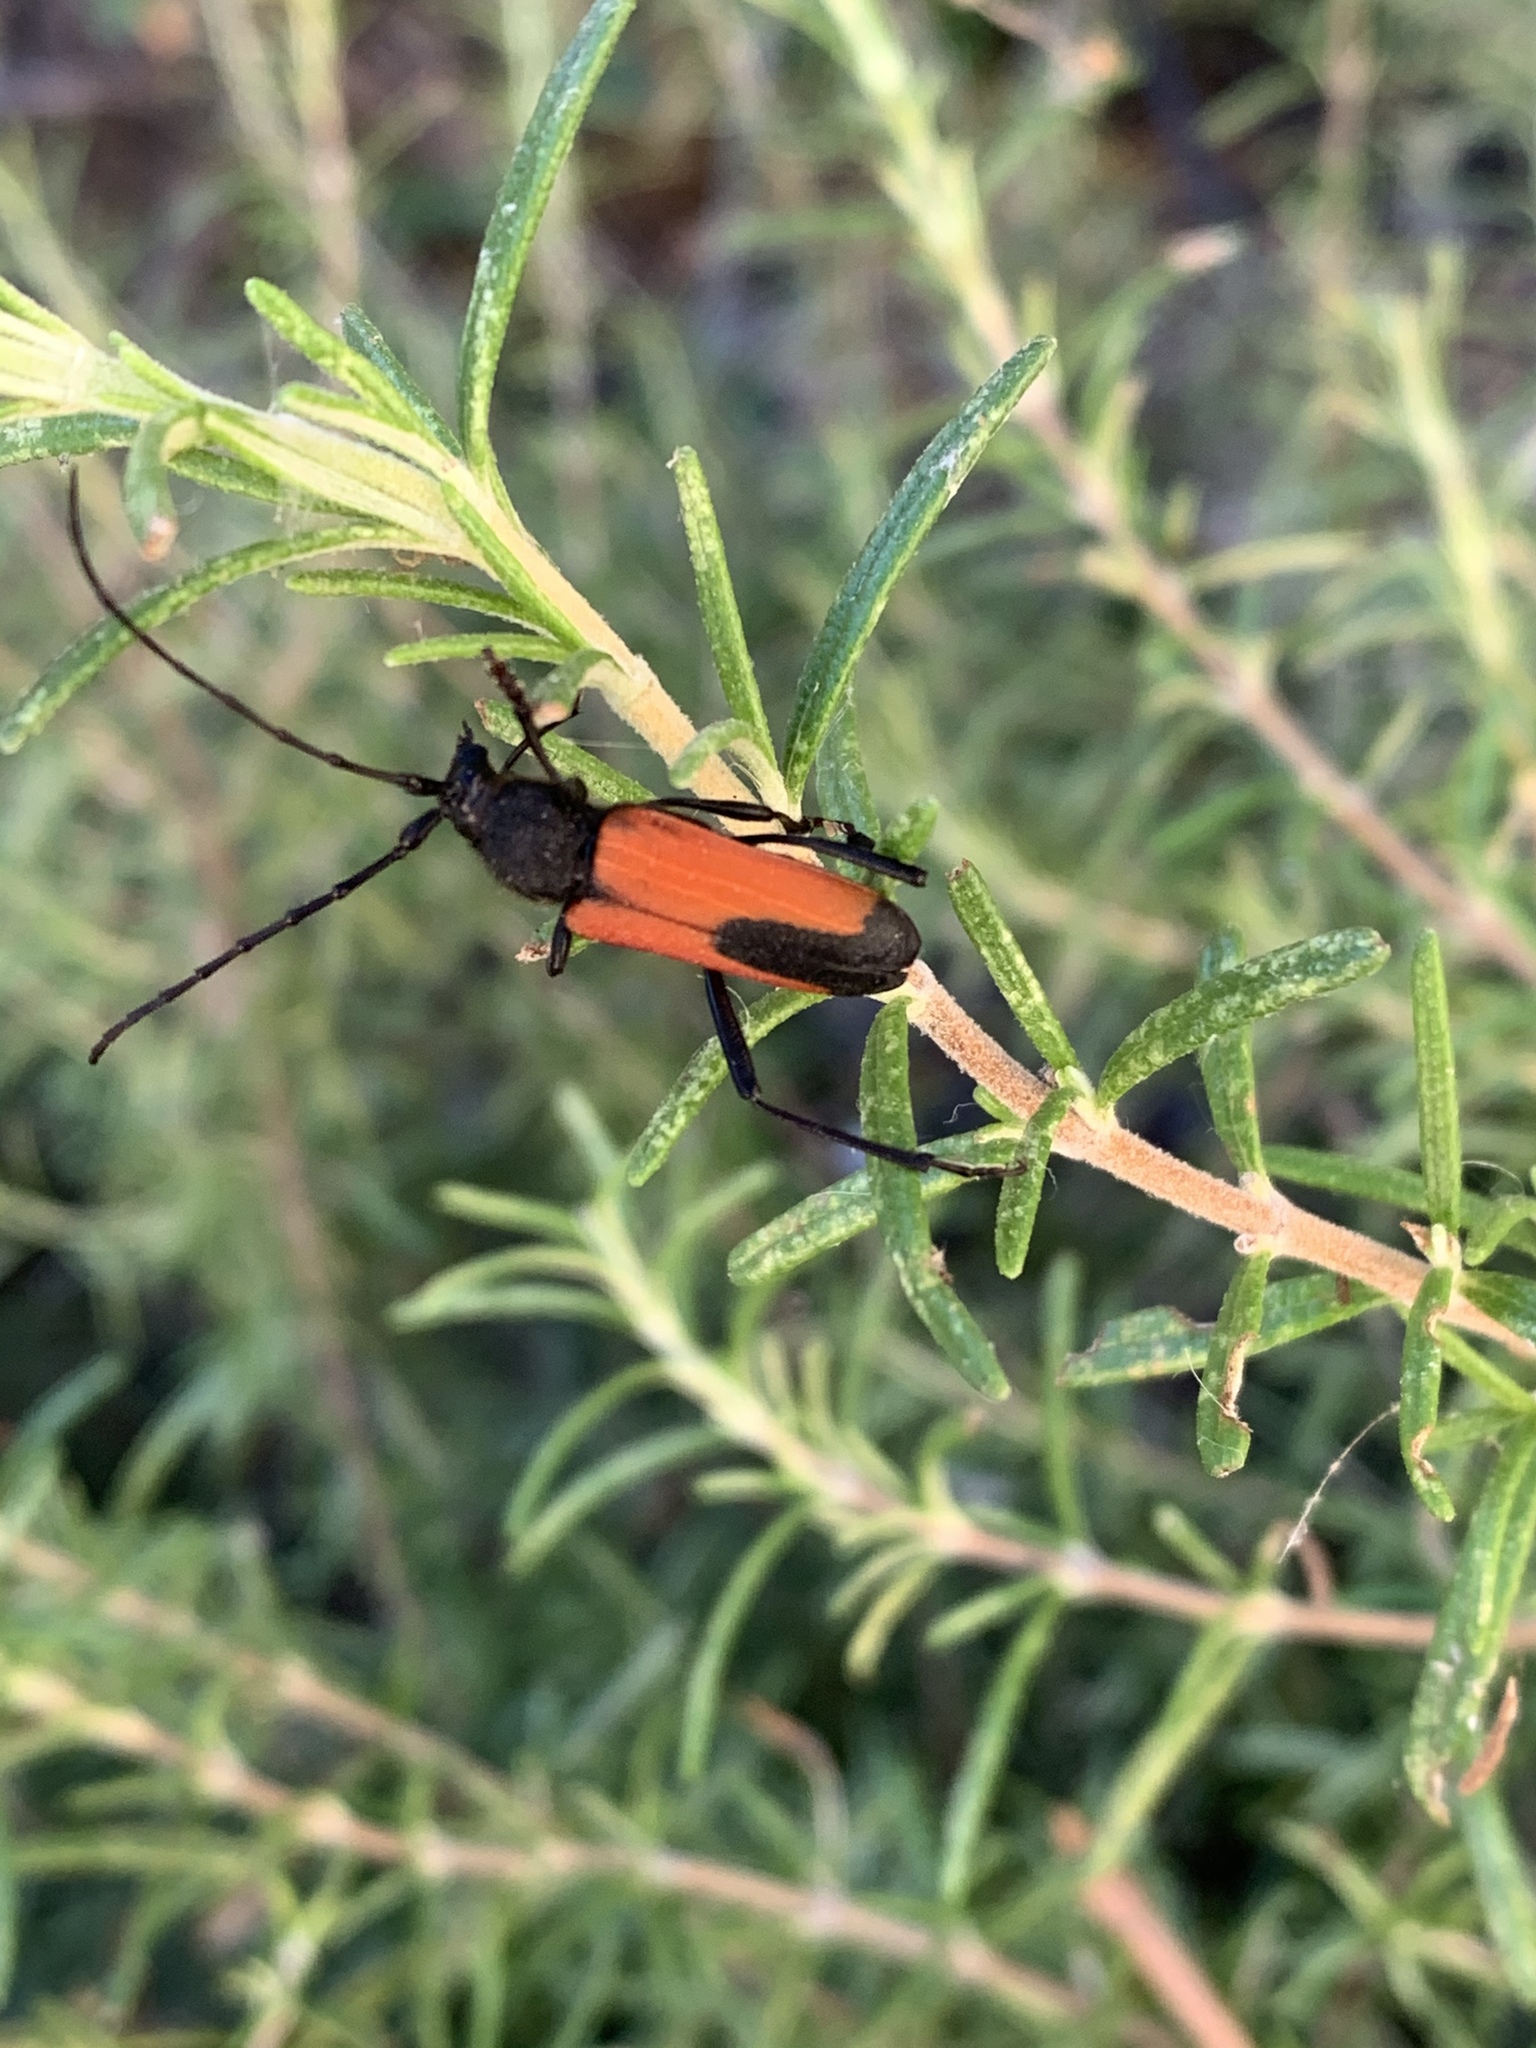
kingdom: Animalia
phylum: Arthropoda
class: Insecta
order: Coleoptera
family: Cerambycidae
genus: Purpuricenus
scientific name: Purpuricenus budensis
